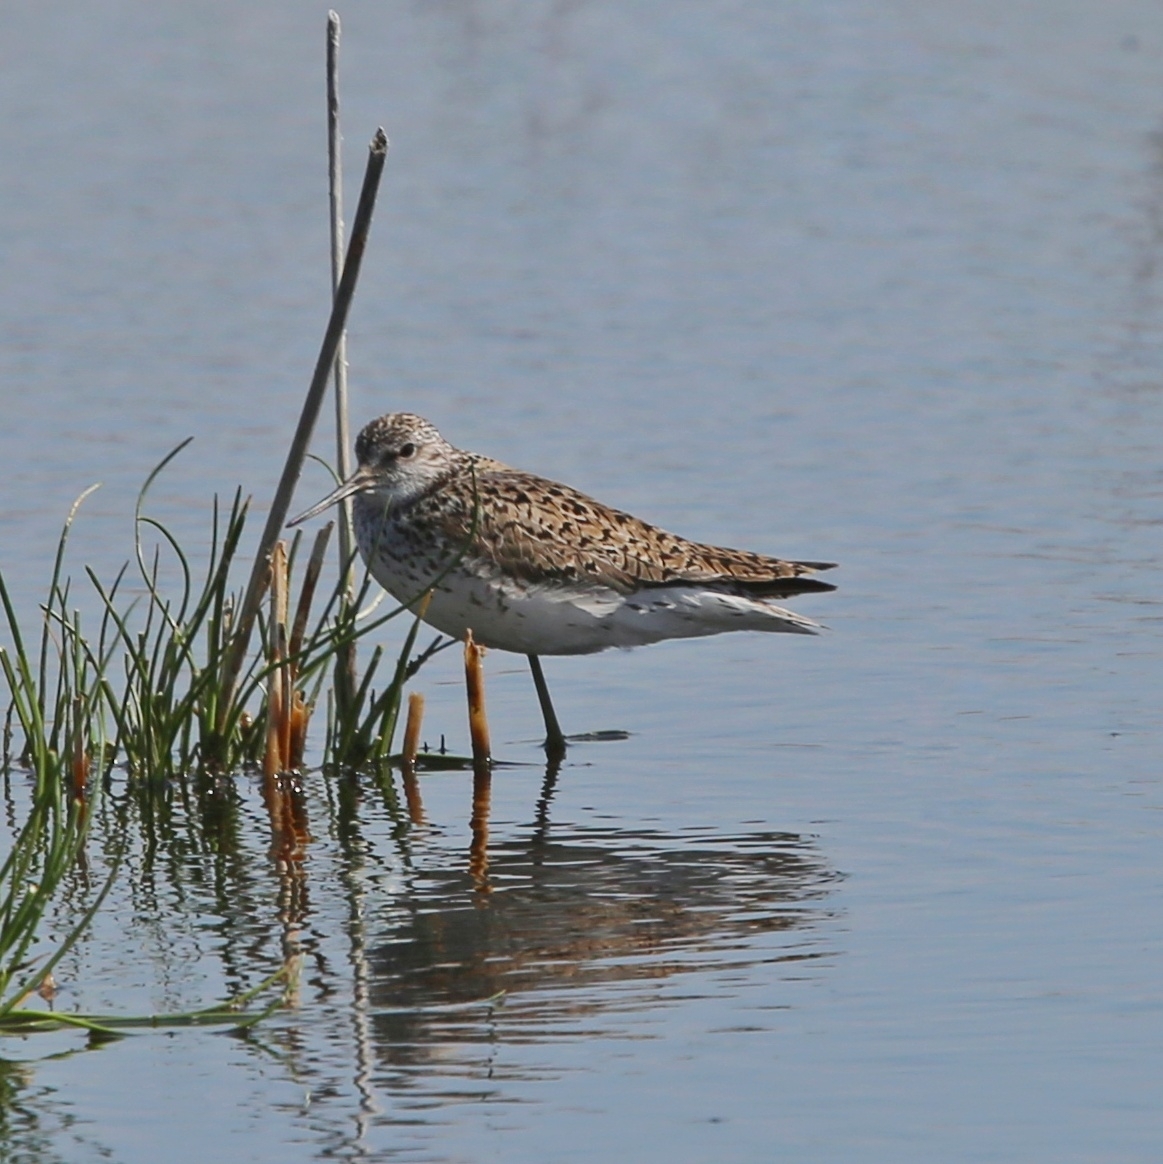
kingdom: Animalia
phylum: Chordata
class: Aves
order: Charadriiformes
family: Scolopacidae
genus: Tringa
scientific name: Tringa stagnatilis
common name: Marsh sandpiper
